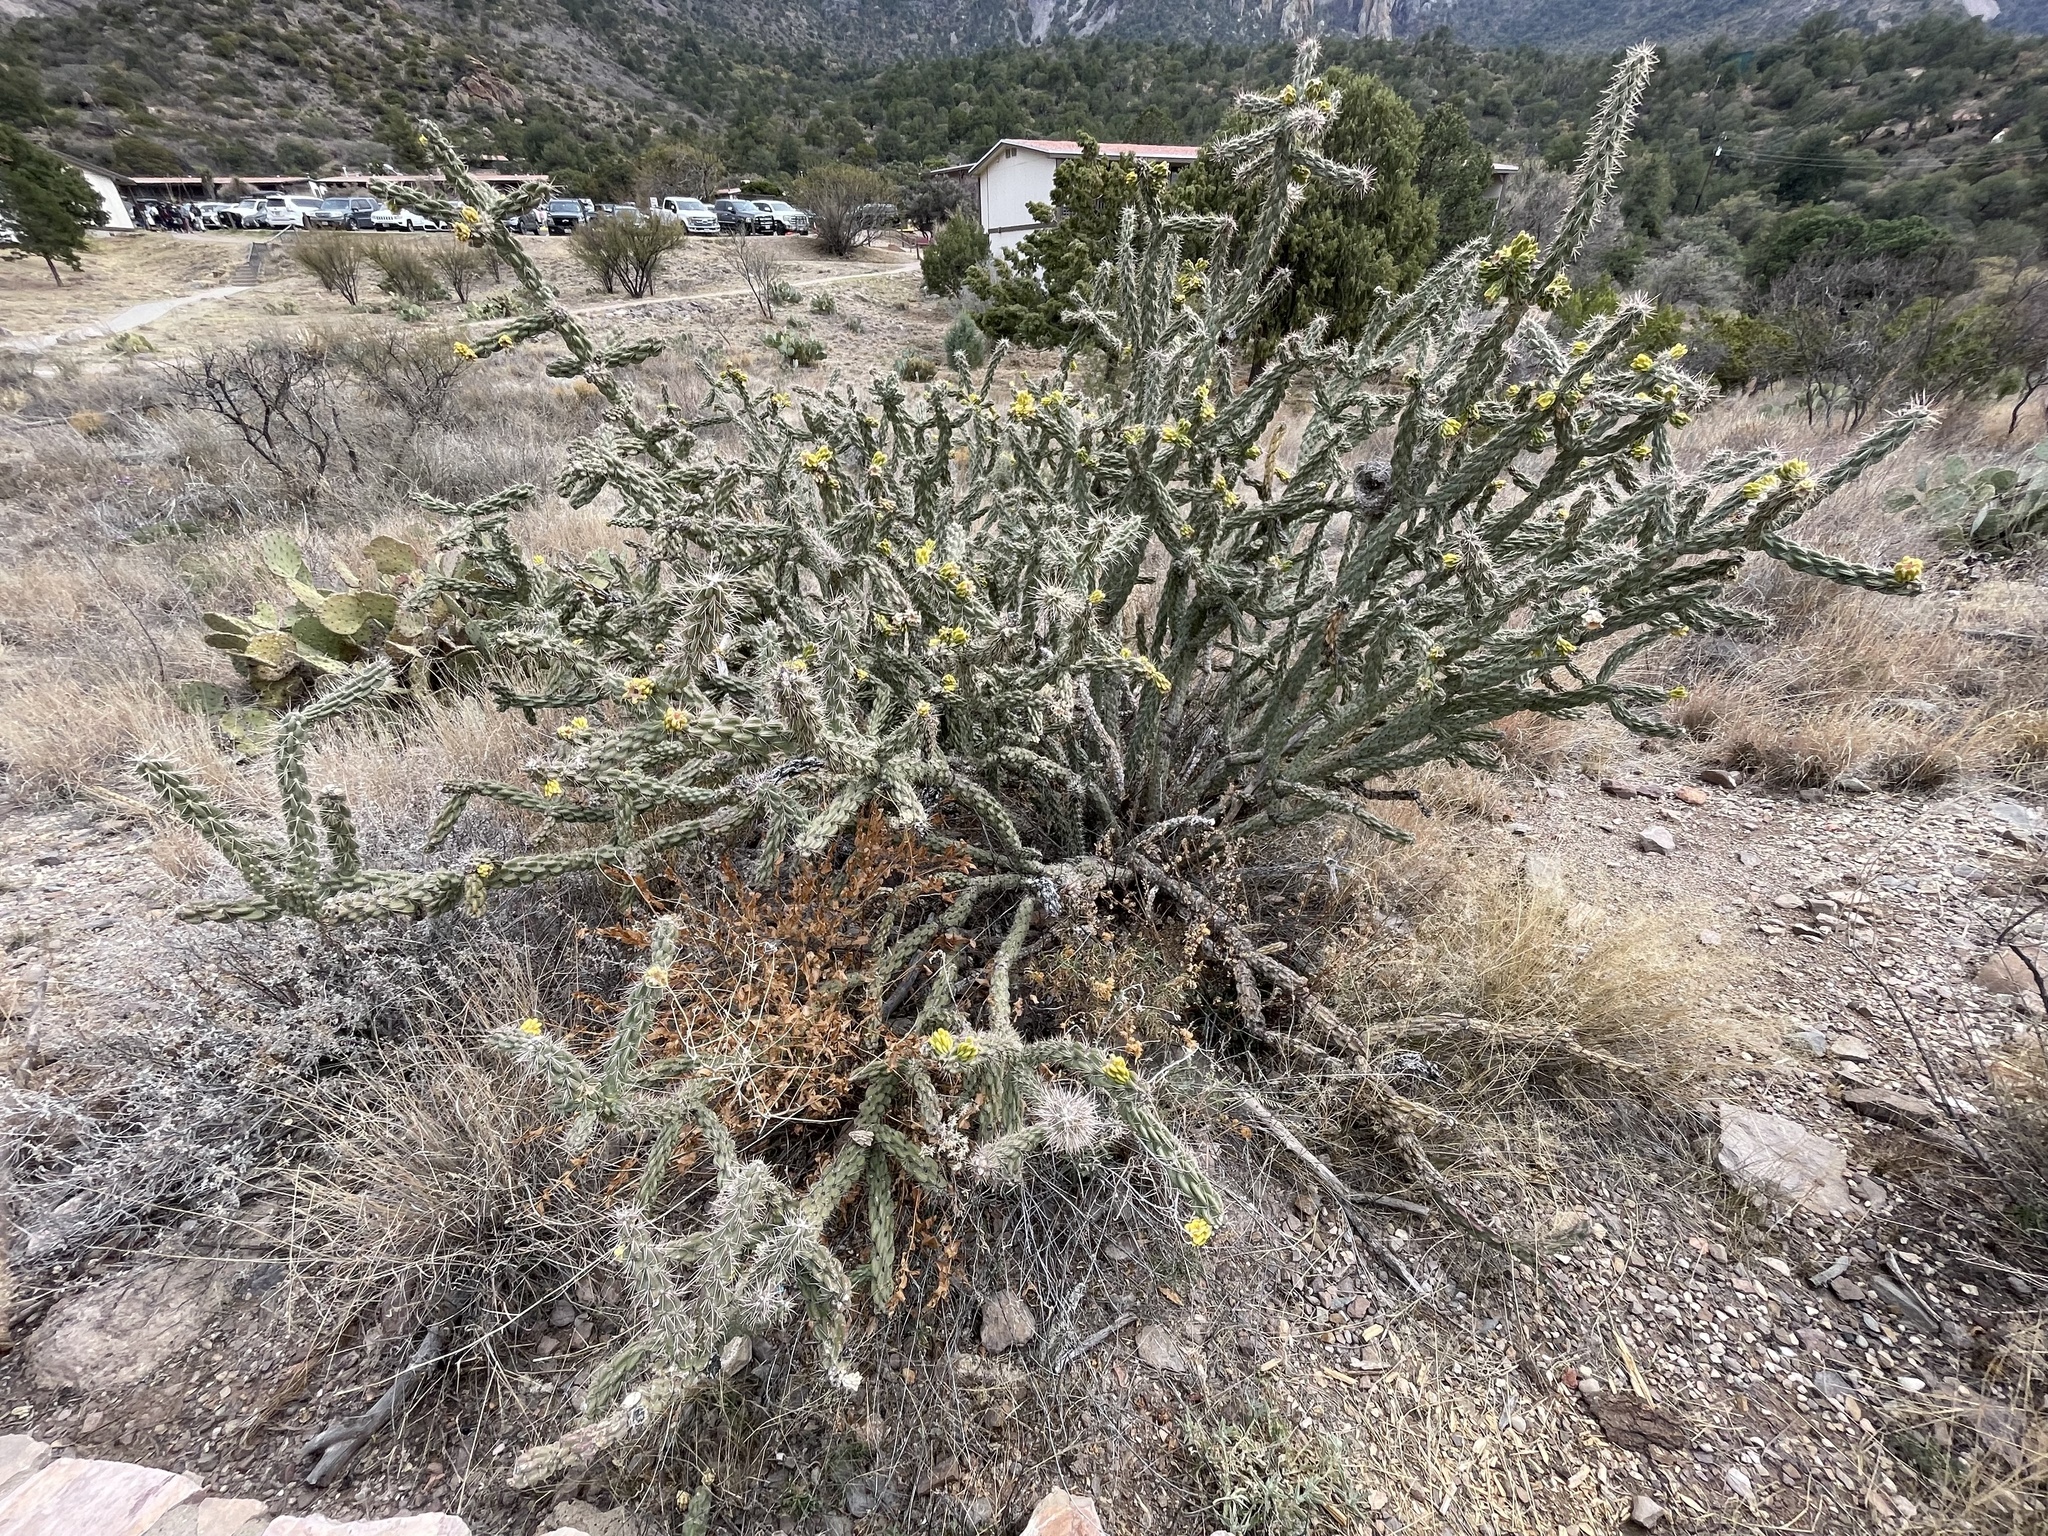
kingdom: Plantae
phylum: Tracheophyta
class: Magnoliopsida
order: Caryophyllales
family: Cactaceae
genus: Cylindropuntia
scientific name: Cylindropuntia imbricata
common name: Candelabrum cactus
